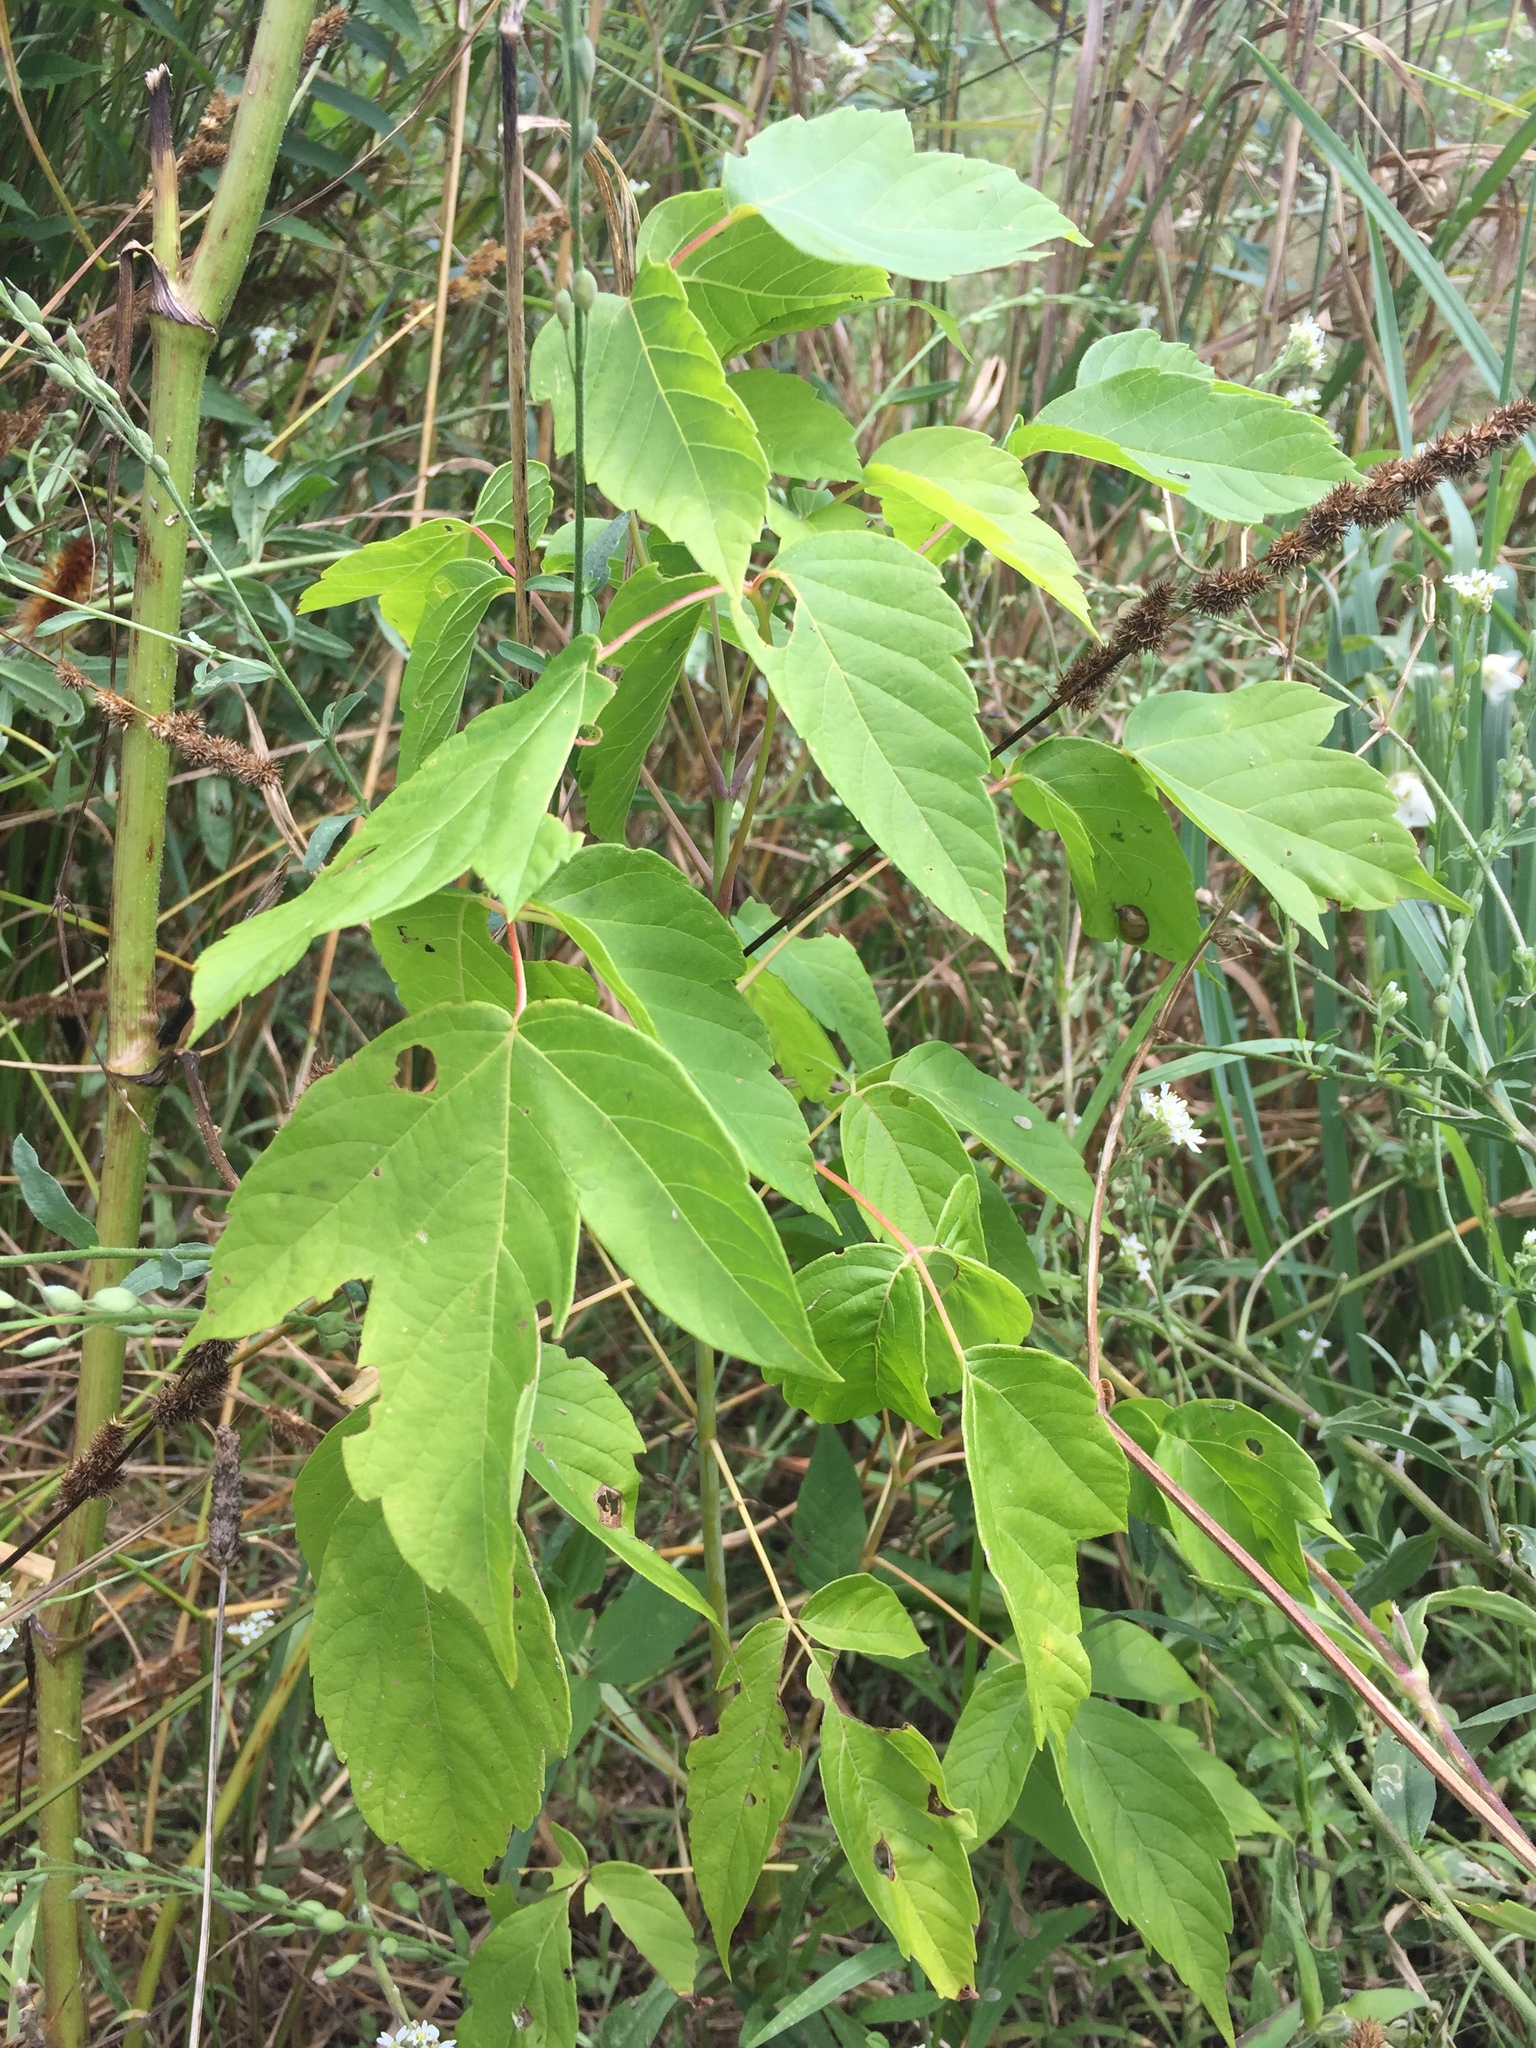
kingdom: Plantae
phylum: Tracheophyta
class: Magnoliopsida
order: Sapindales
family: Sapindaceae
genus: Acer
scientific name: Acer negundo
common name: Ashleaf maple
